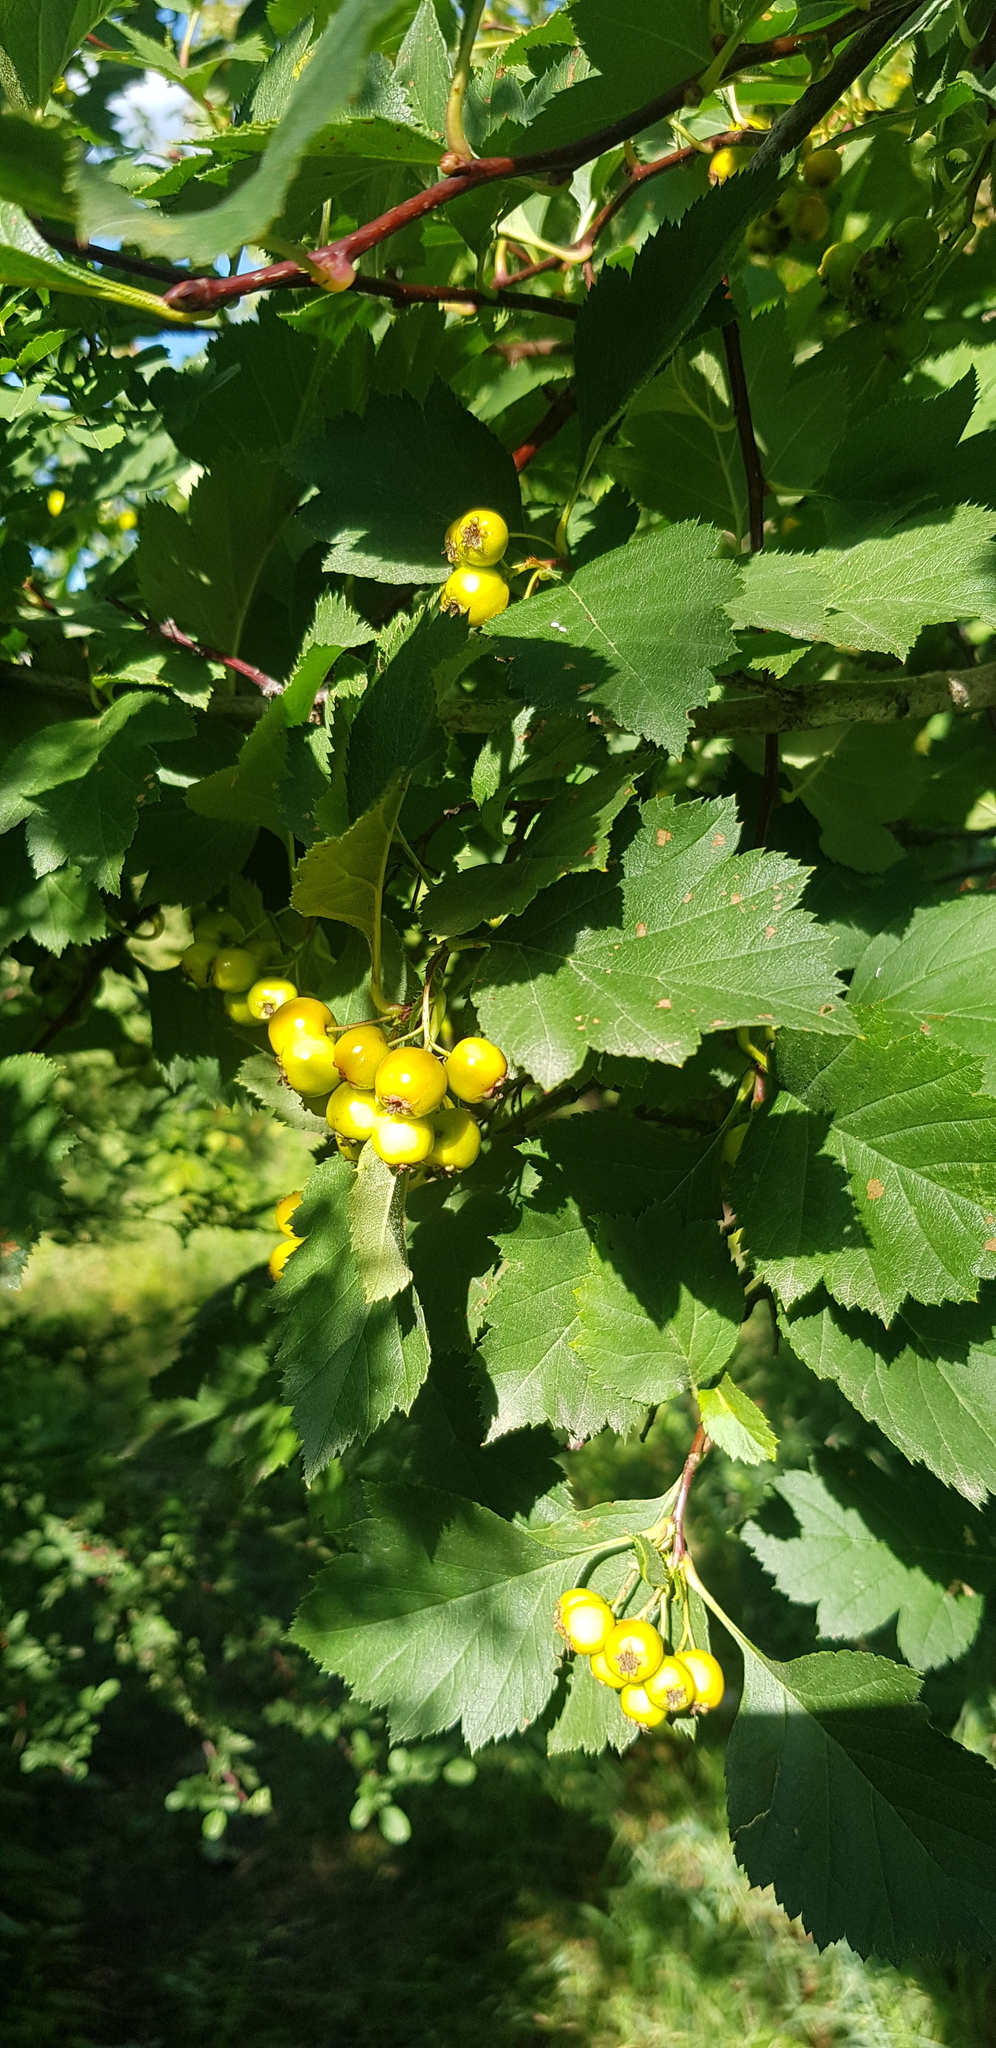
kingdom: Plantae
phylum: Tracheophyta
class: Magnoliopsida
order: Rosales
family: Rosaceae
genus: Crataegus
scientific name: Crataegus sanguinea
